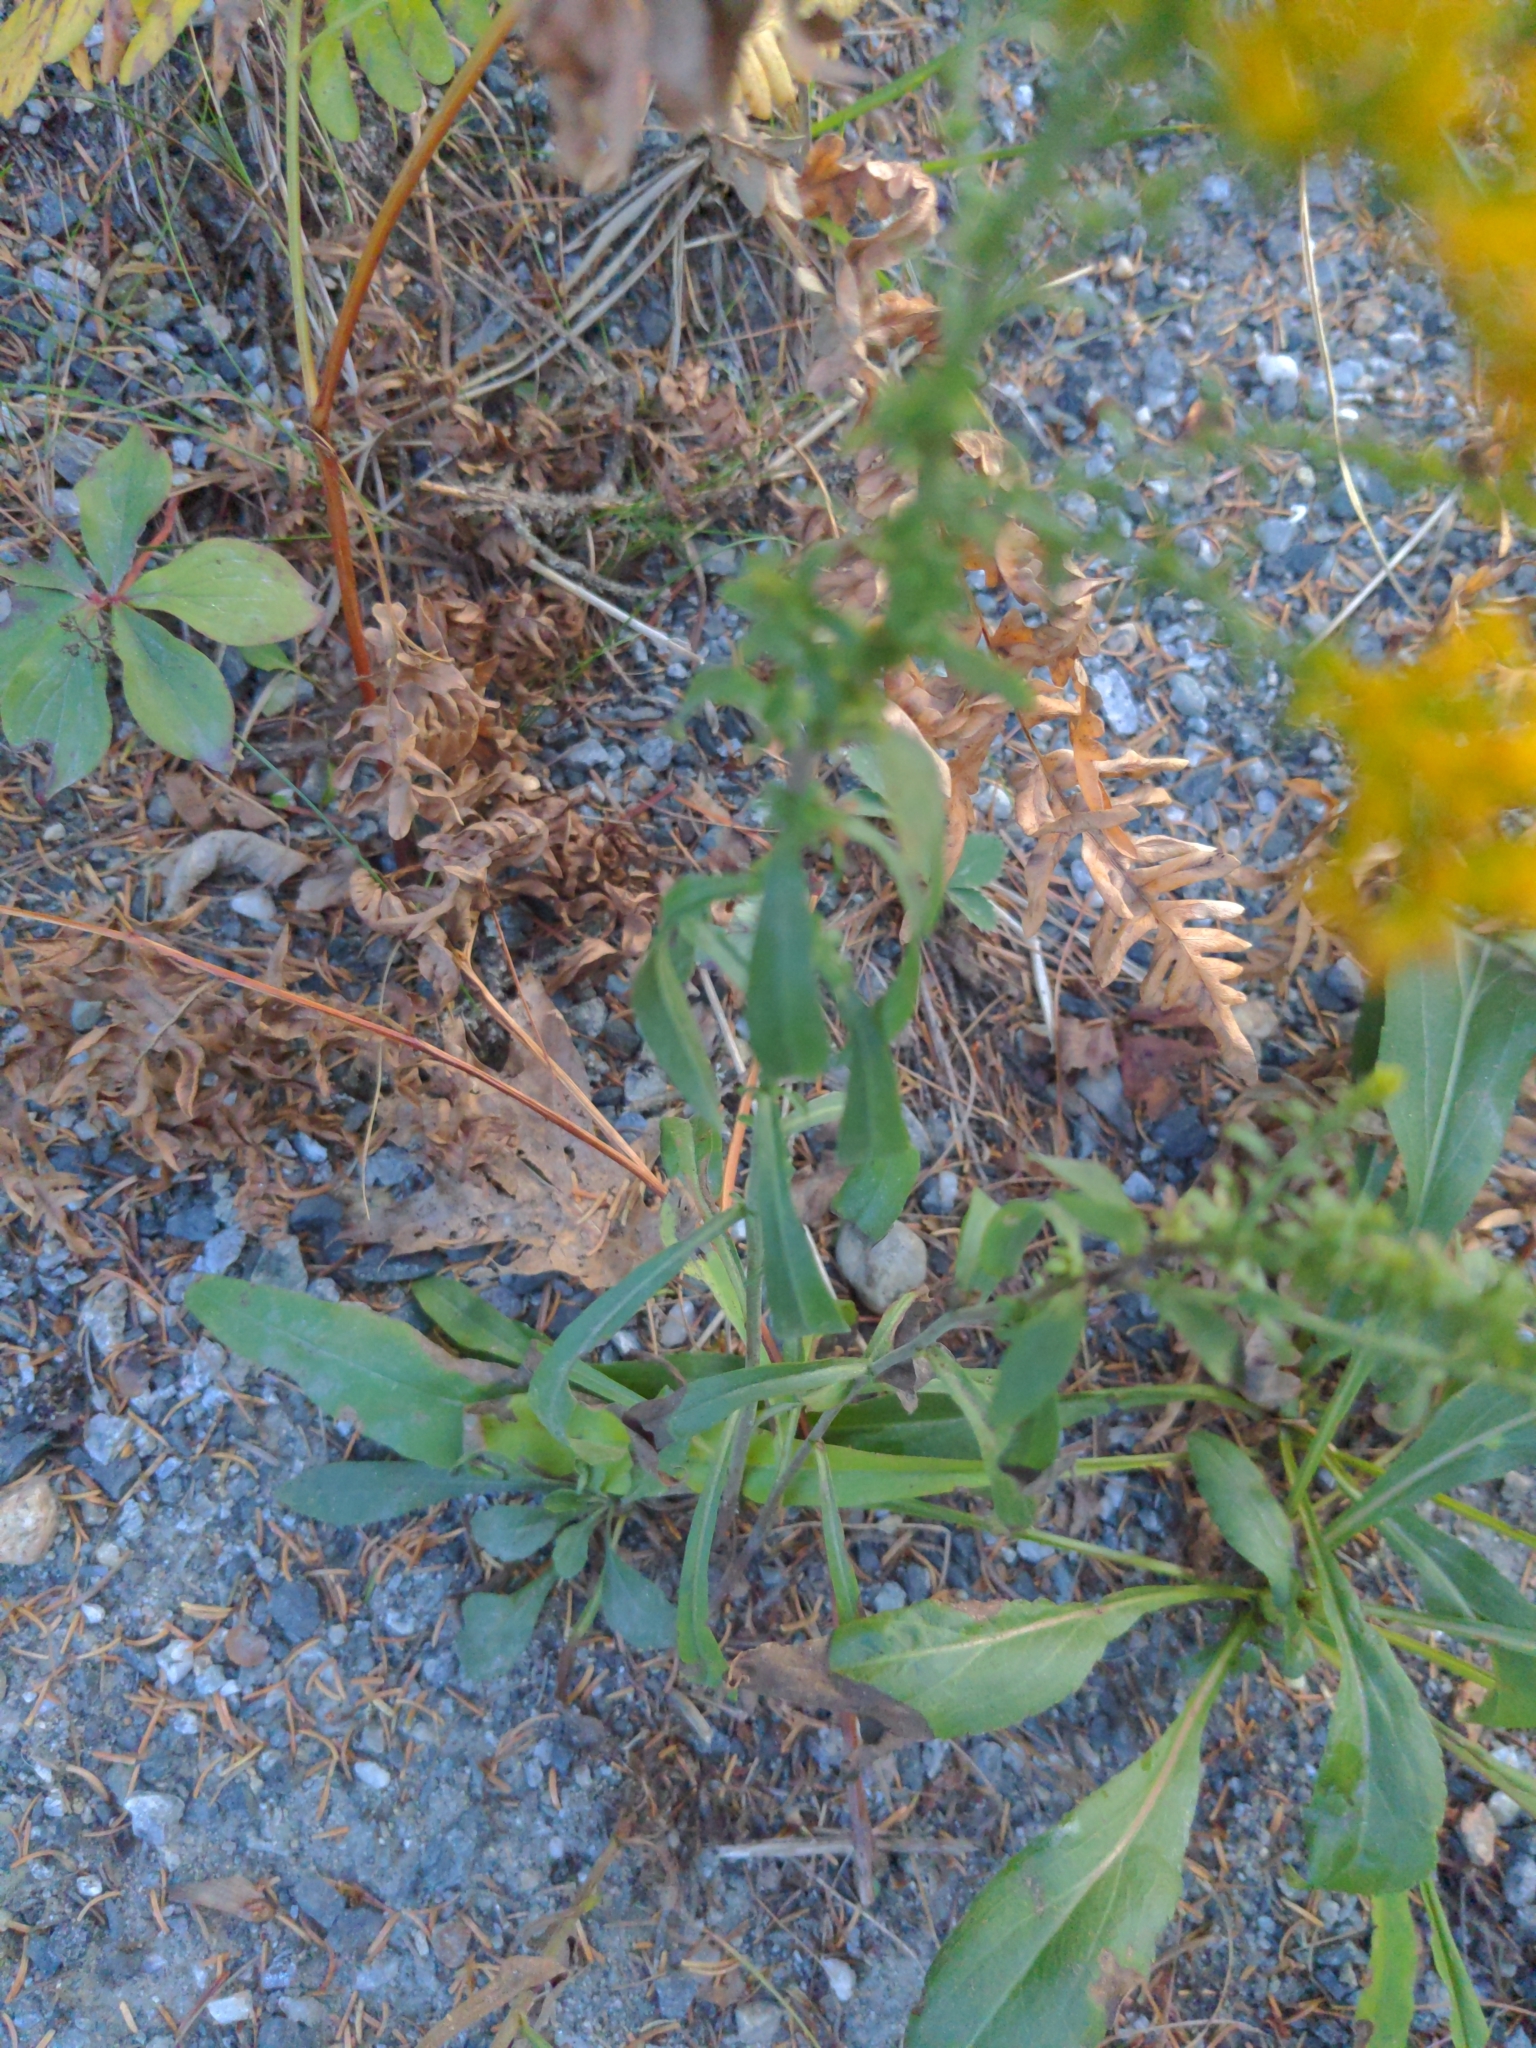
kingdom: Plantae
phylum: Tracheophyta
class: Magnoliopsida
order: Asterales
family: Asteraceae
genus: Solidago
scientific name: Solidago nemoralis
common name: Grey goldenrod
